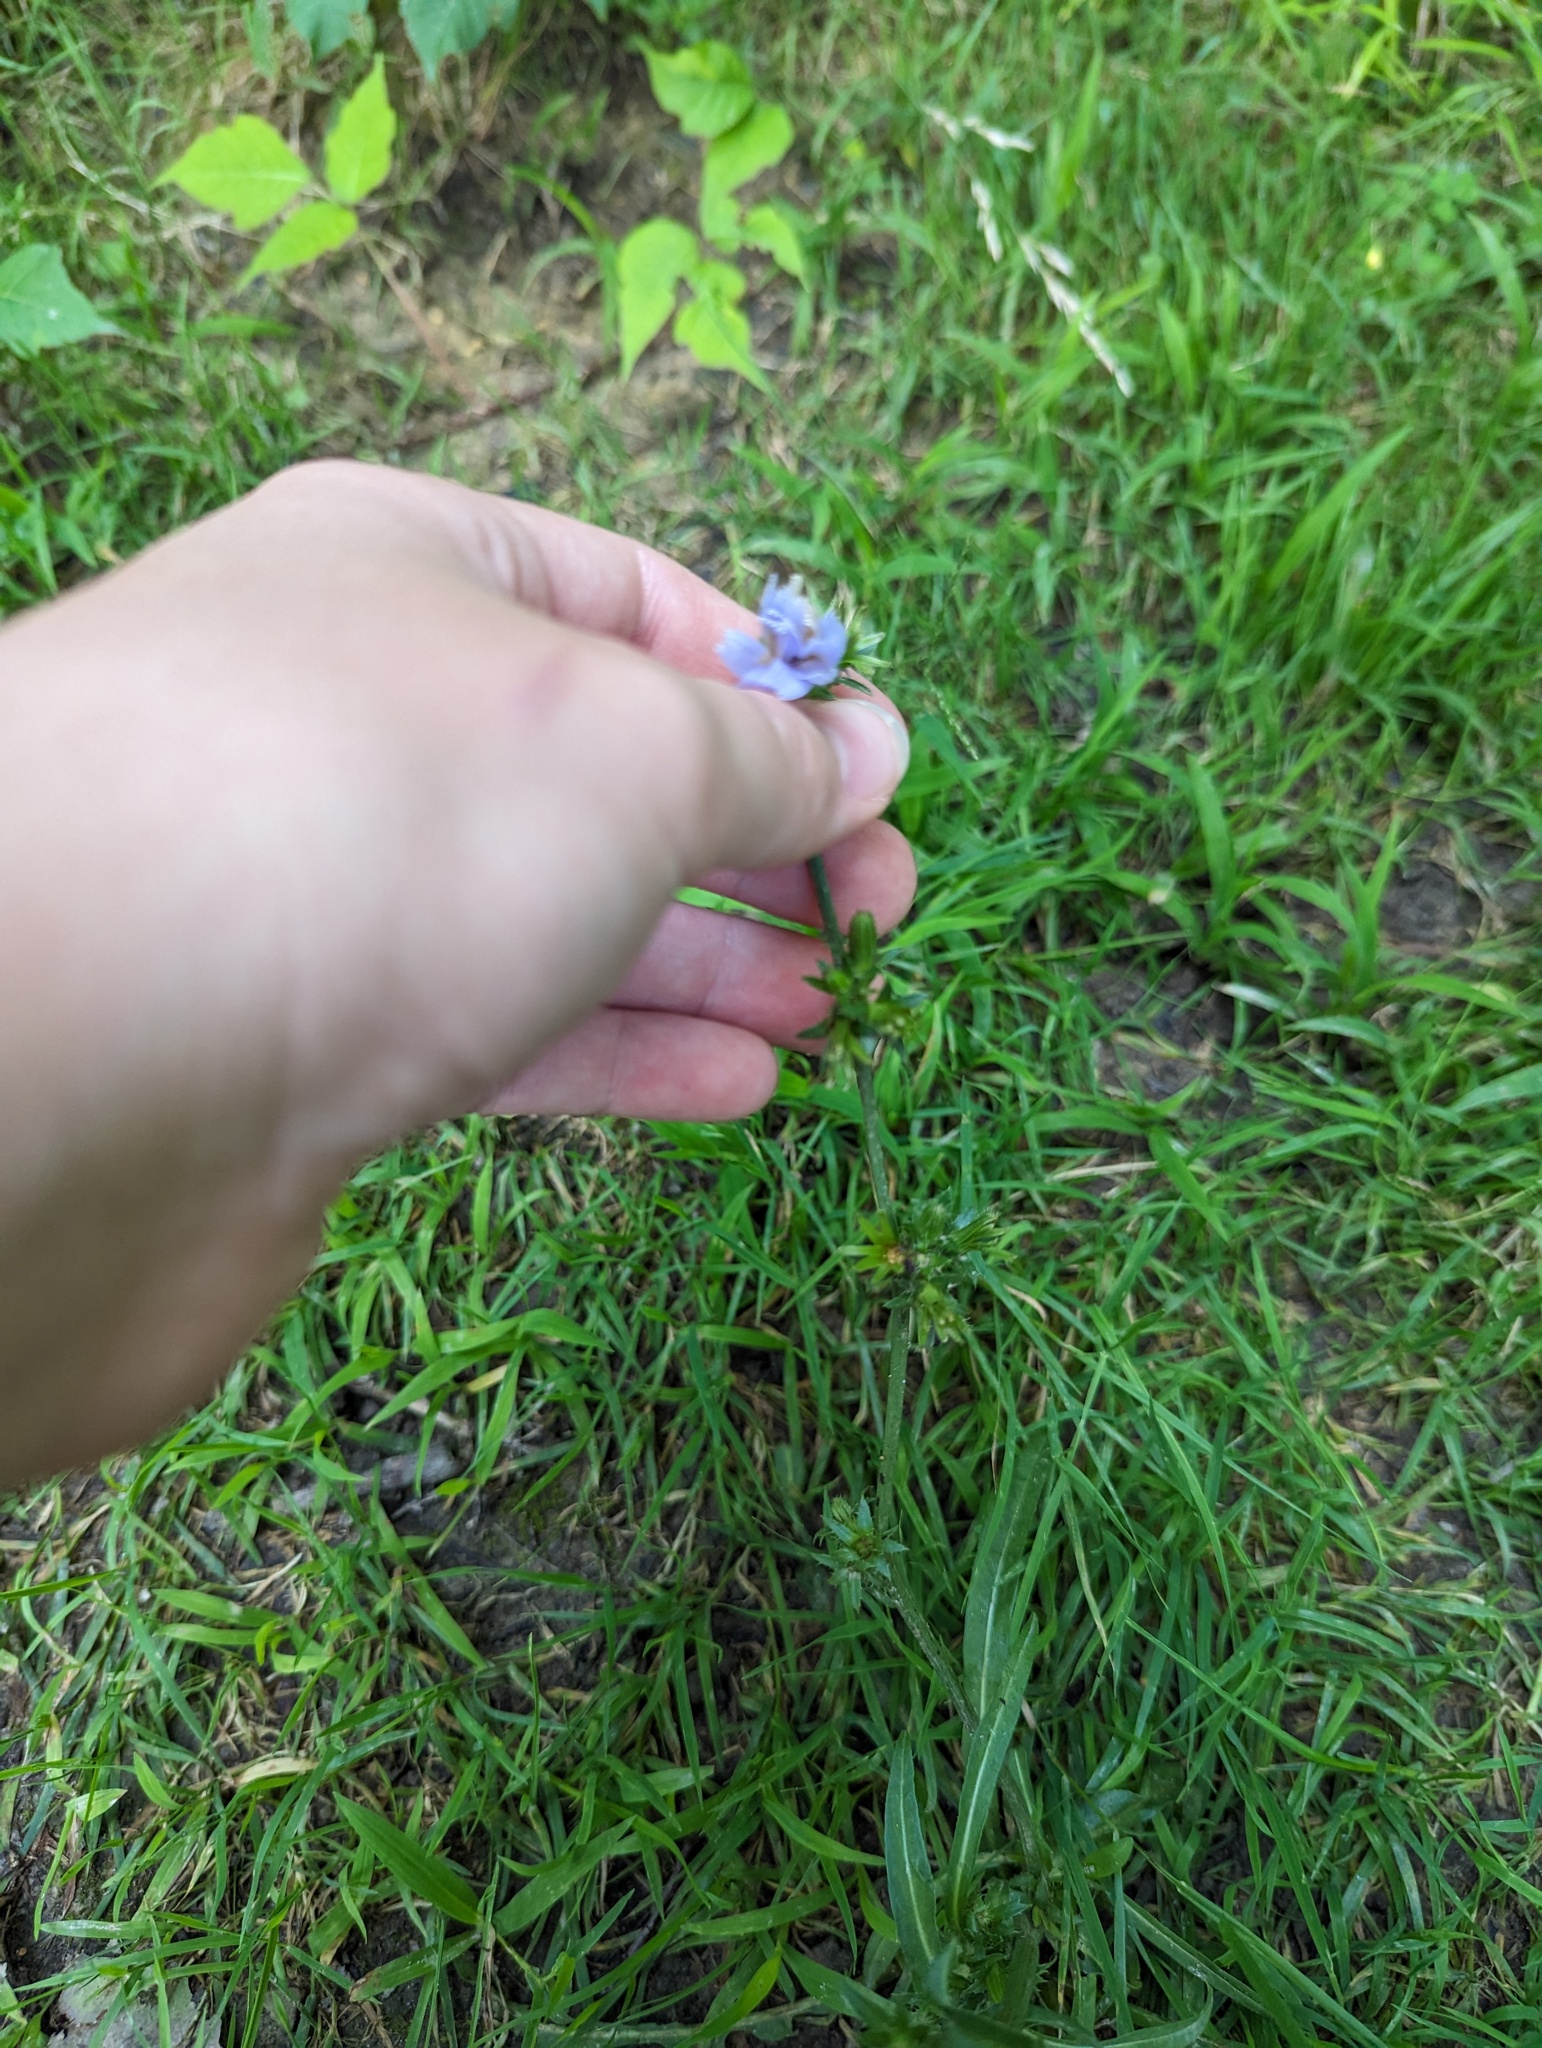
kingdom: Plantae
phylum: Tracheophyta
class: Magnoliopsida
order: Asterales
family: Asteraceae
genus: Cichorium
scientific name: Cichorium intybus
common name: Chicory
